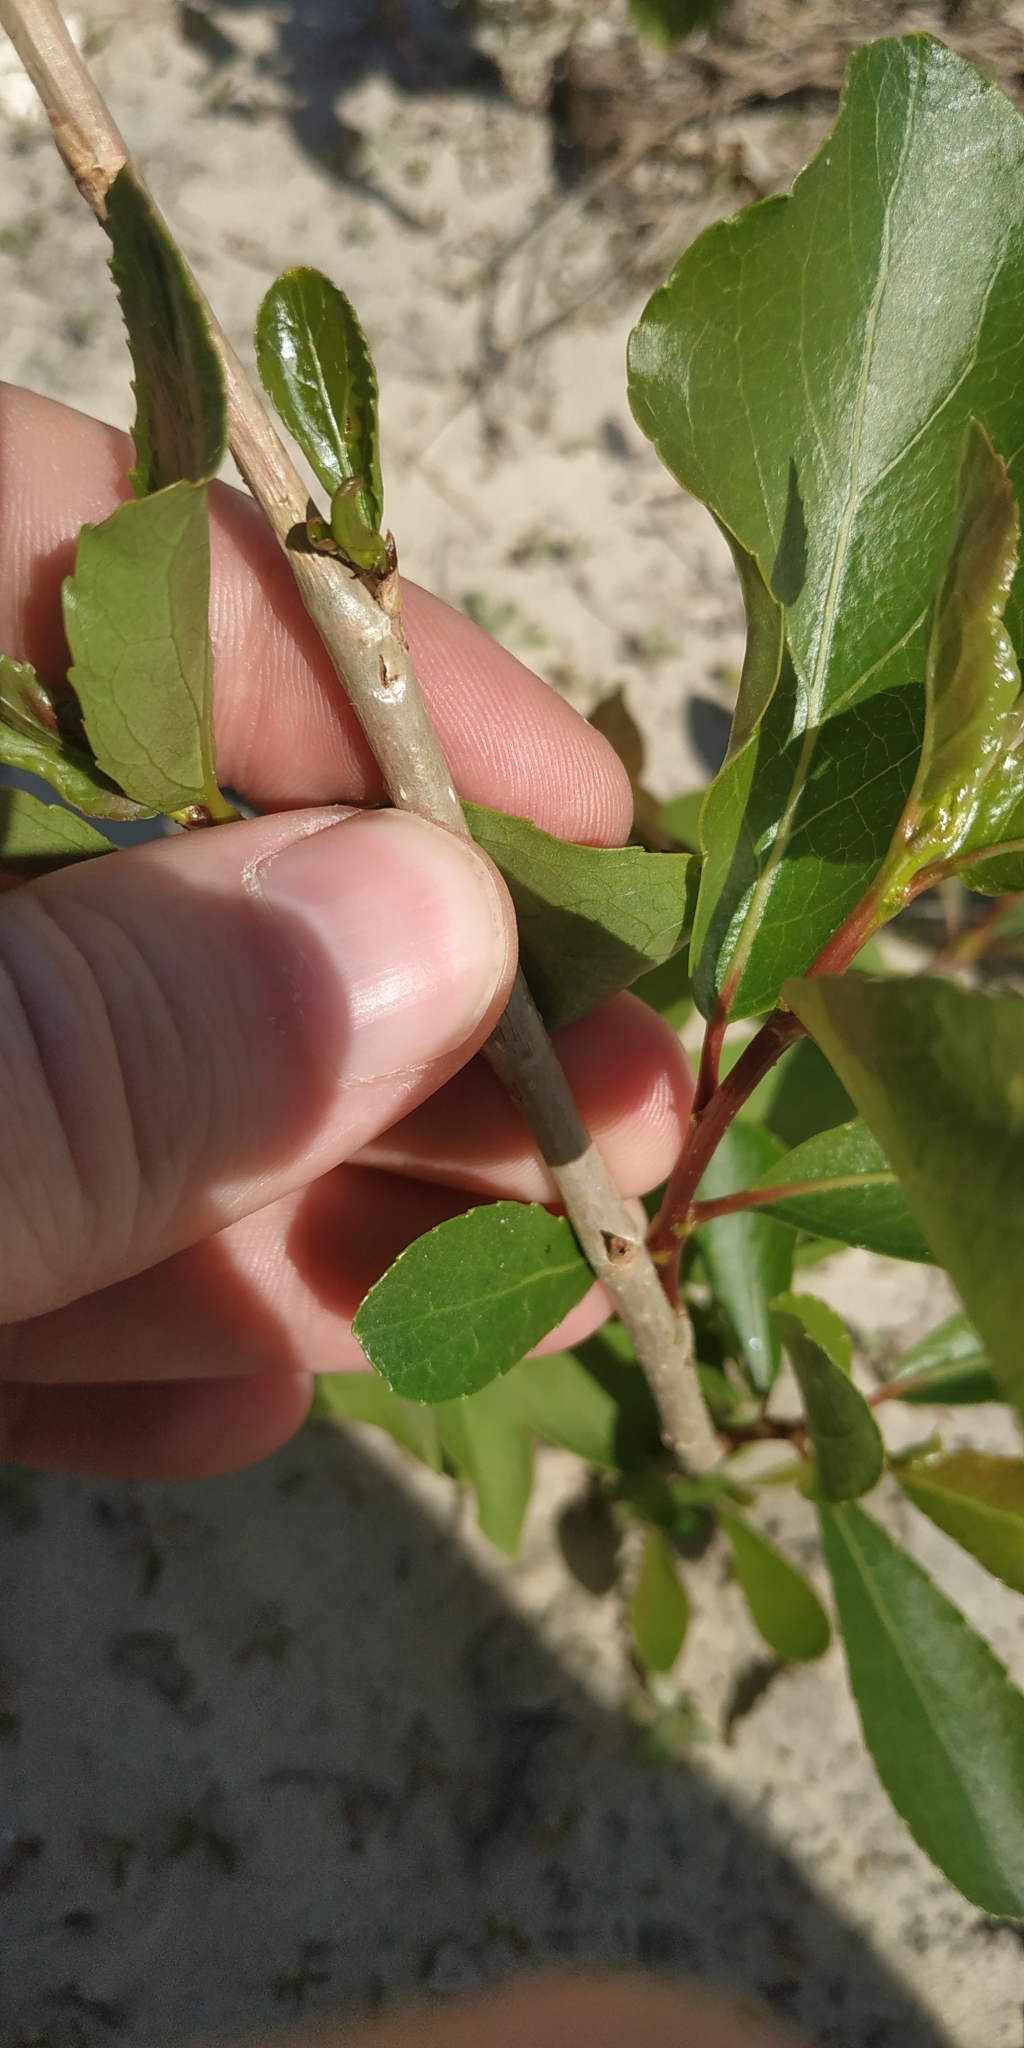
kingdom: Plantae
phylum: Tracheophyta
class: Magnoliopsida
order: Malpighiales
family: Salicaceae
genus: Populus
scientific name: Populus sibirica
